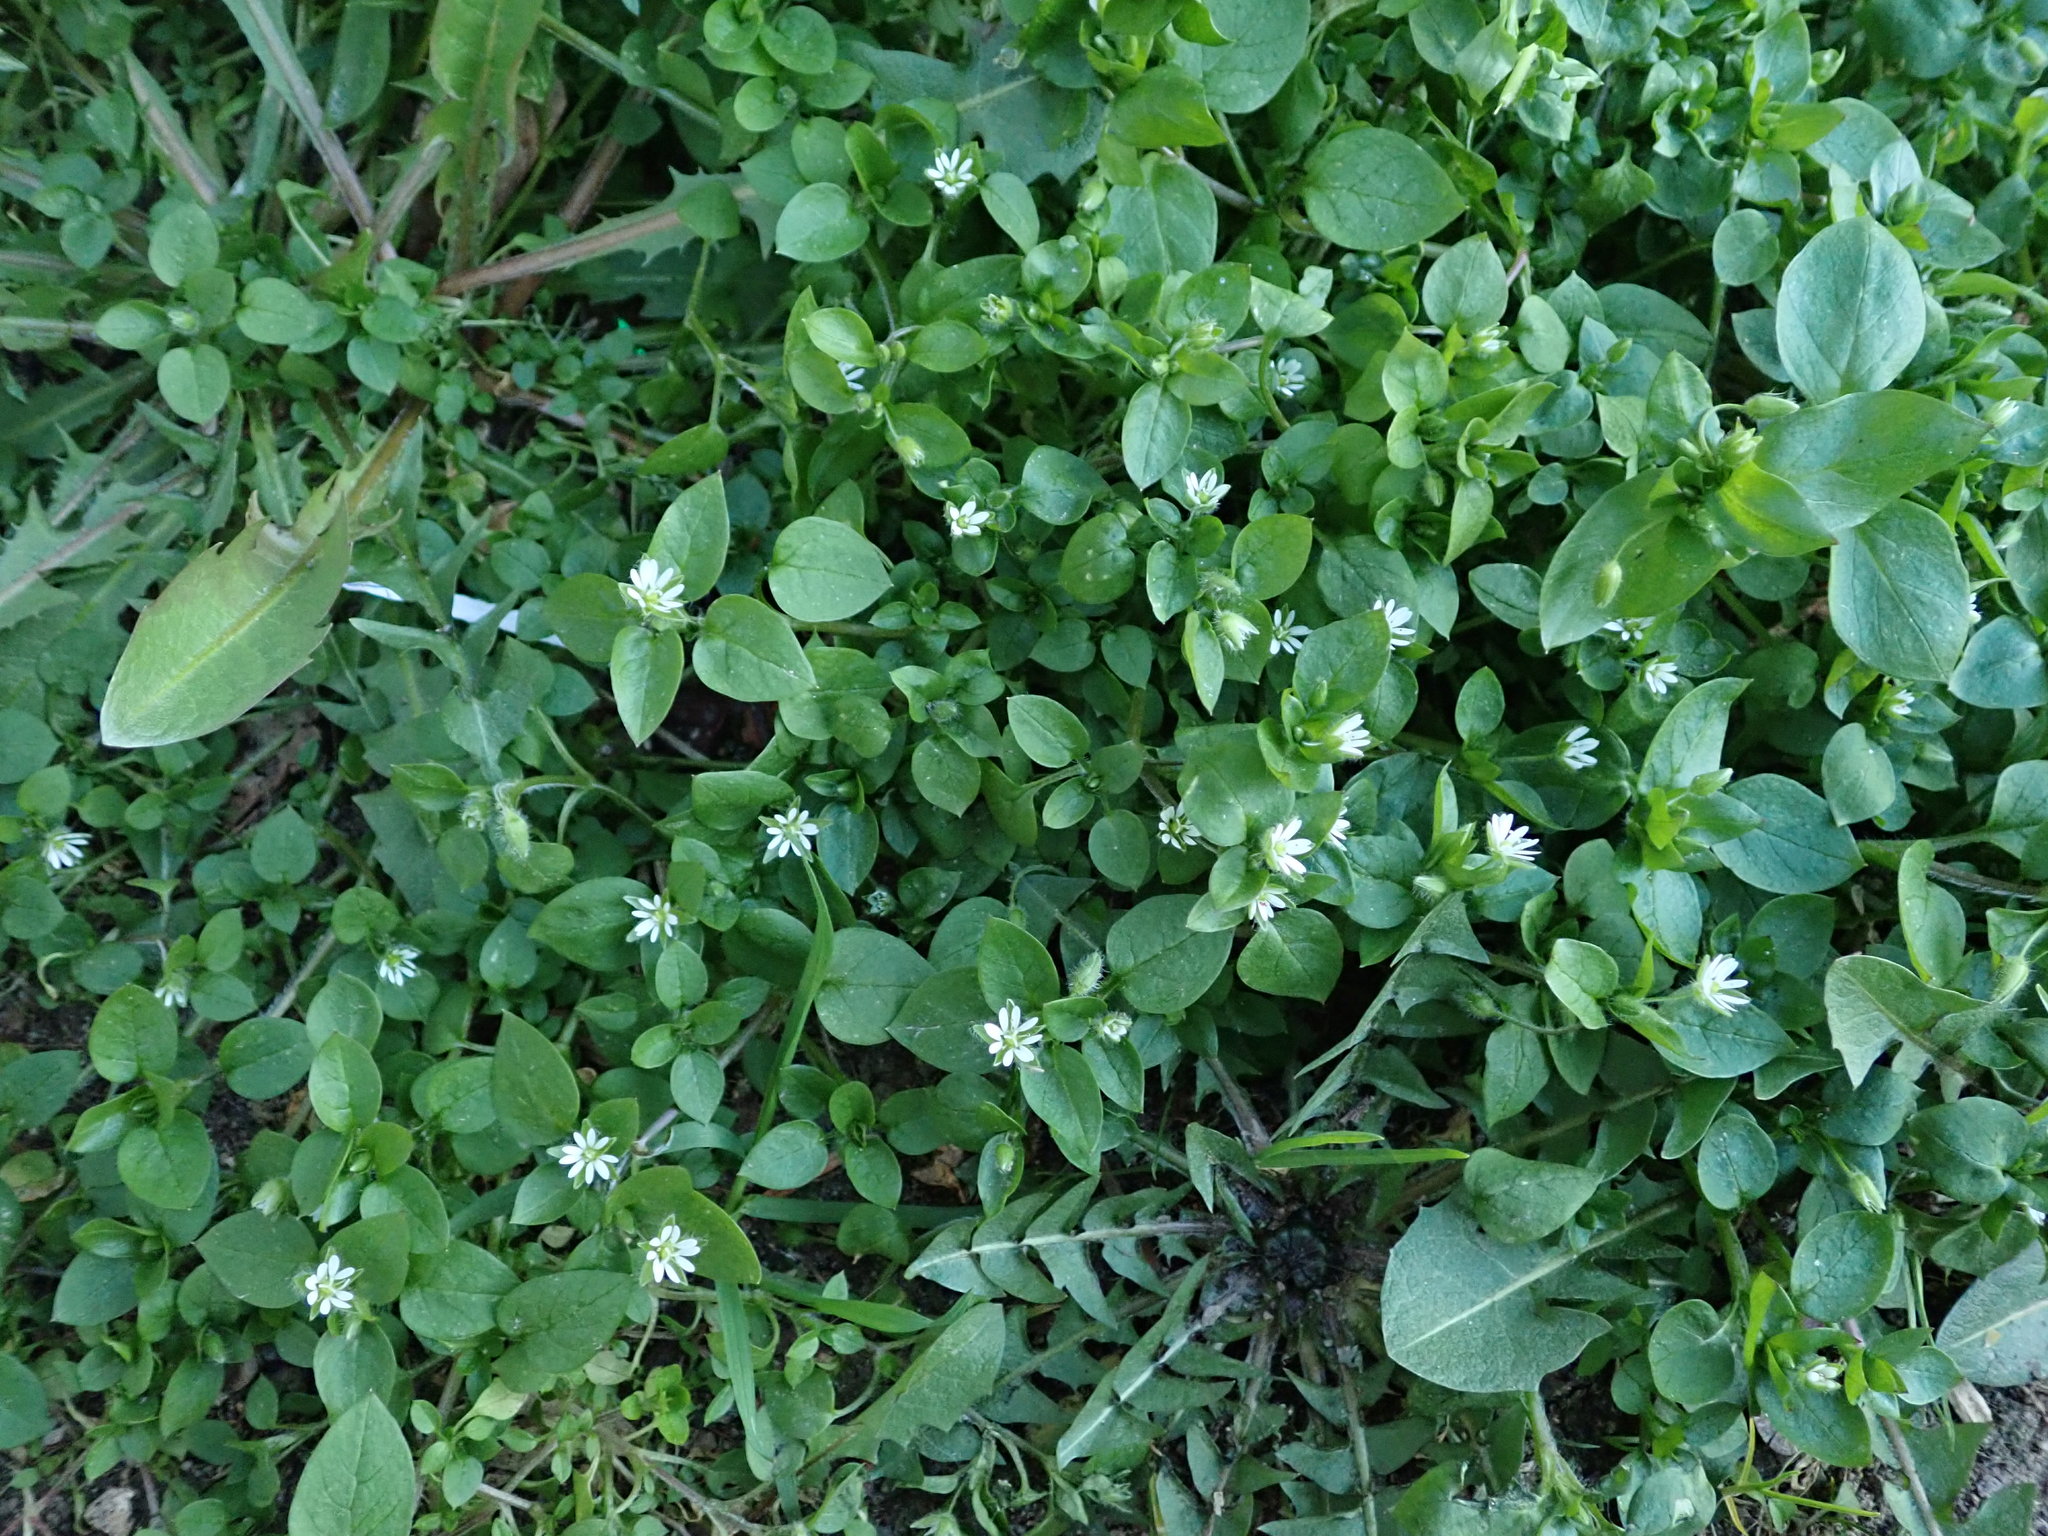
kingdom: Plantae
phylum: Tracheophyta
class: Magnoliopsida
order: Caryophyllales
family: Caryophyllaceae
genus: Stellaria
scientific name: Stellaria media
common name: Common chickweed
